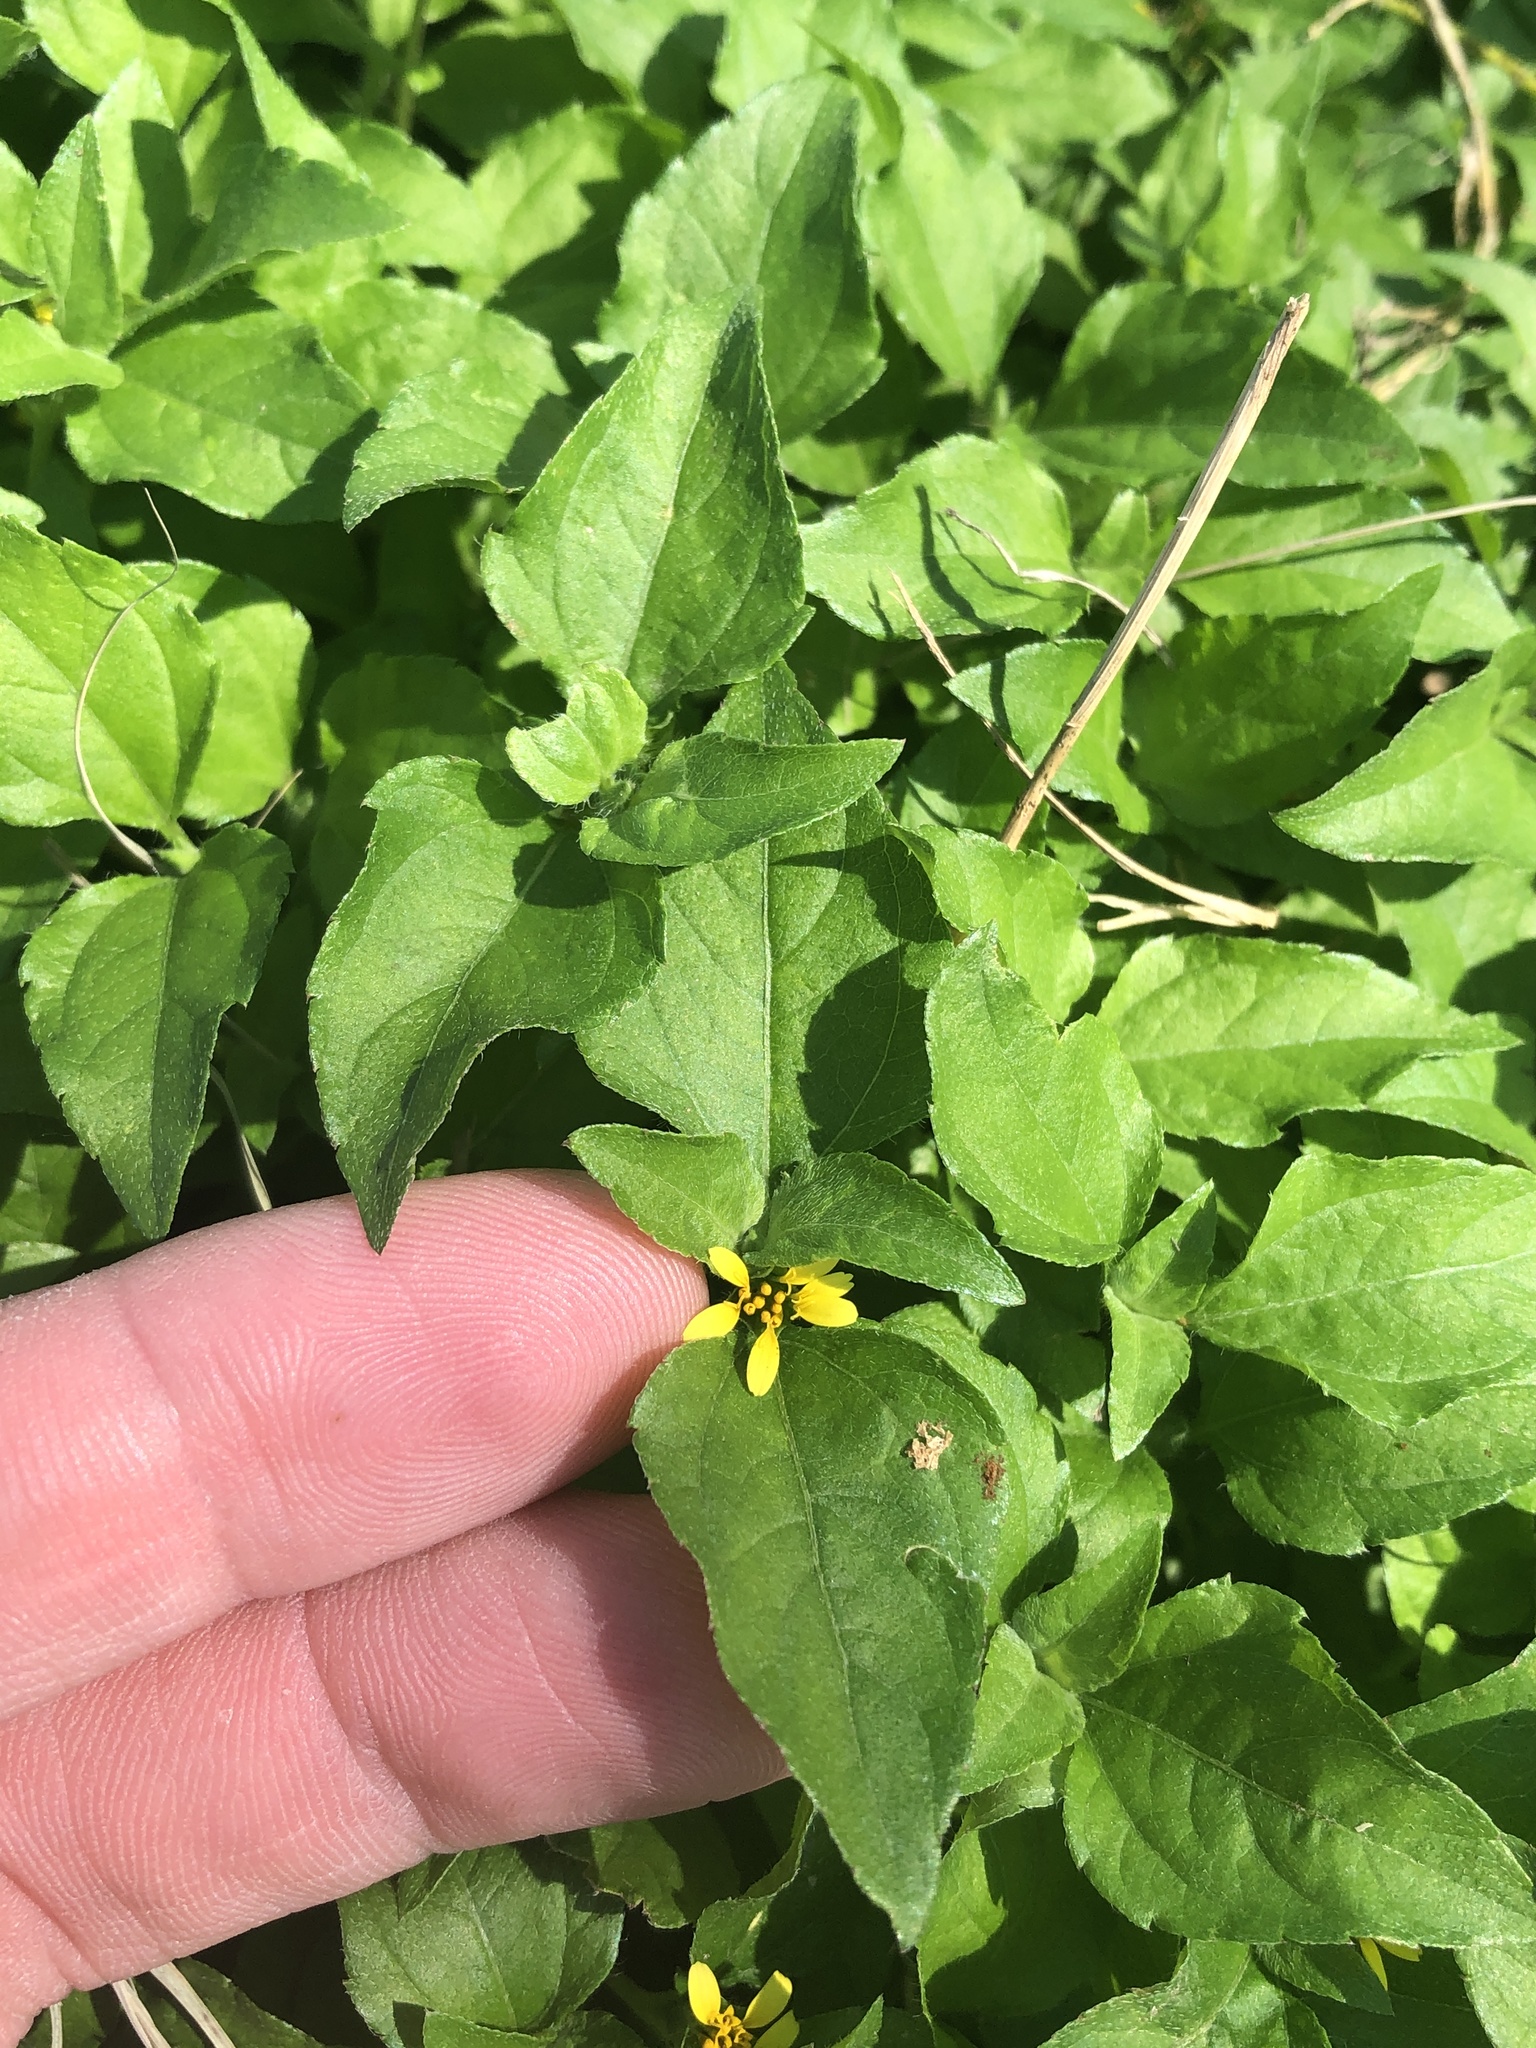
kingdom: Plantae
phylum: Tracheophyta
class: Magnoliopsida
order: Asterales
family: Asteraceae
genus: Calyptocarpus
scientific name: Calyptocarpus vialis
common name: Straggler daisy
